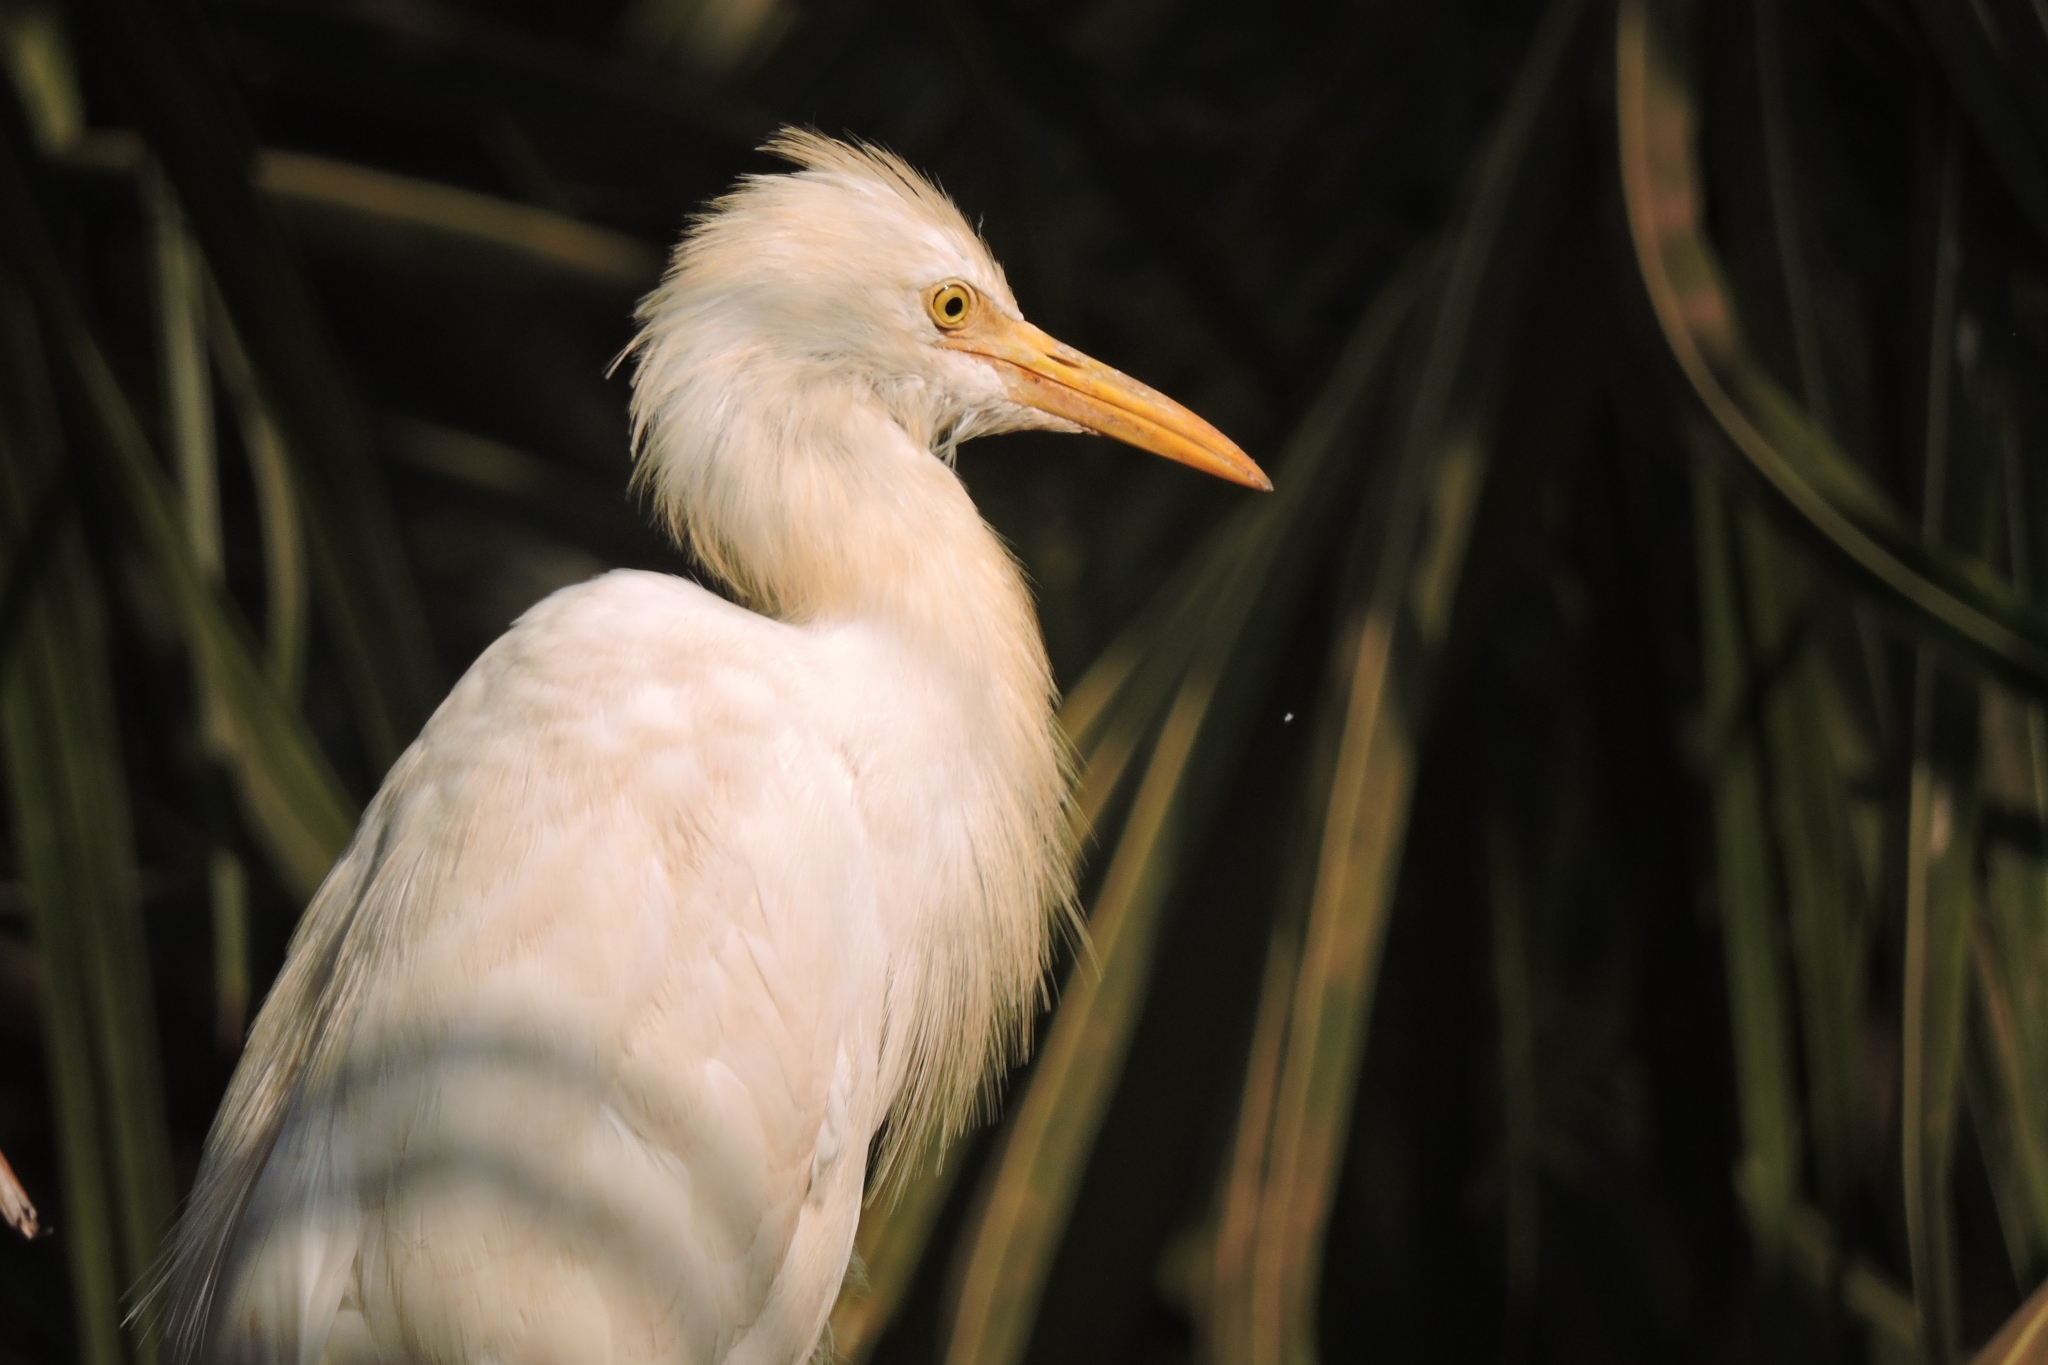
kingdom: Animalia
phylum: Chordata
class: Aves
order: Pelecaniformes
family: Ardeidae
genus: Bubulcus
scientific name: Bubulcus coromandus
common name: Eastern cattle egret
